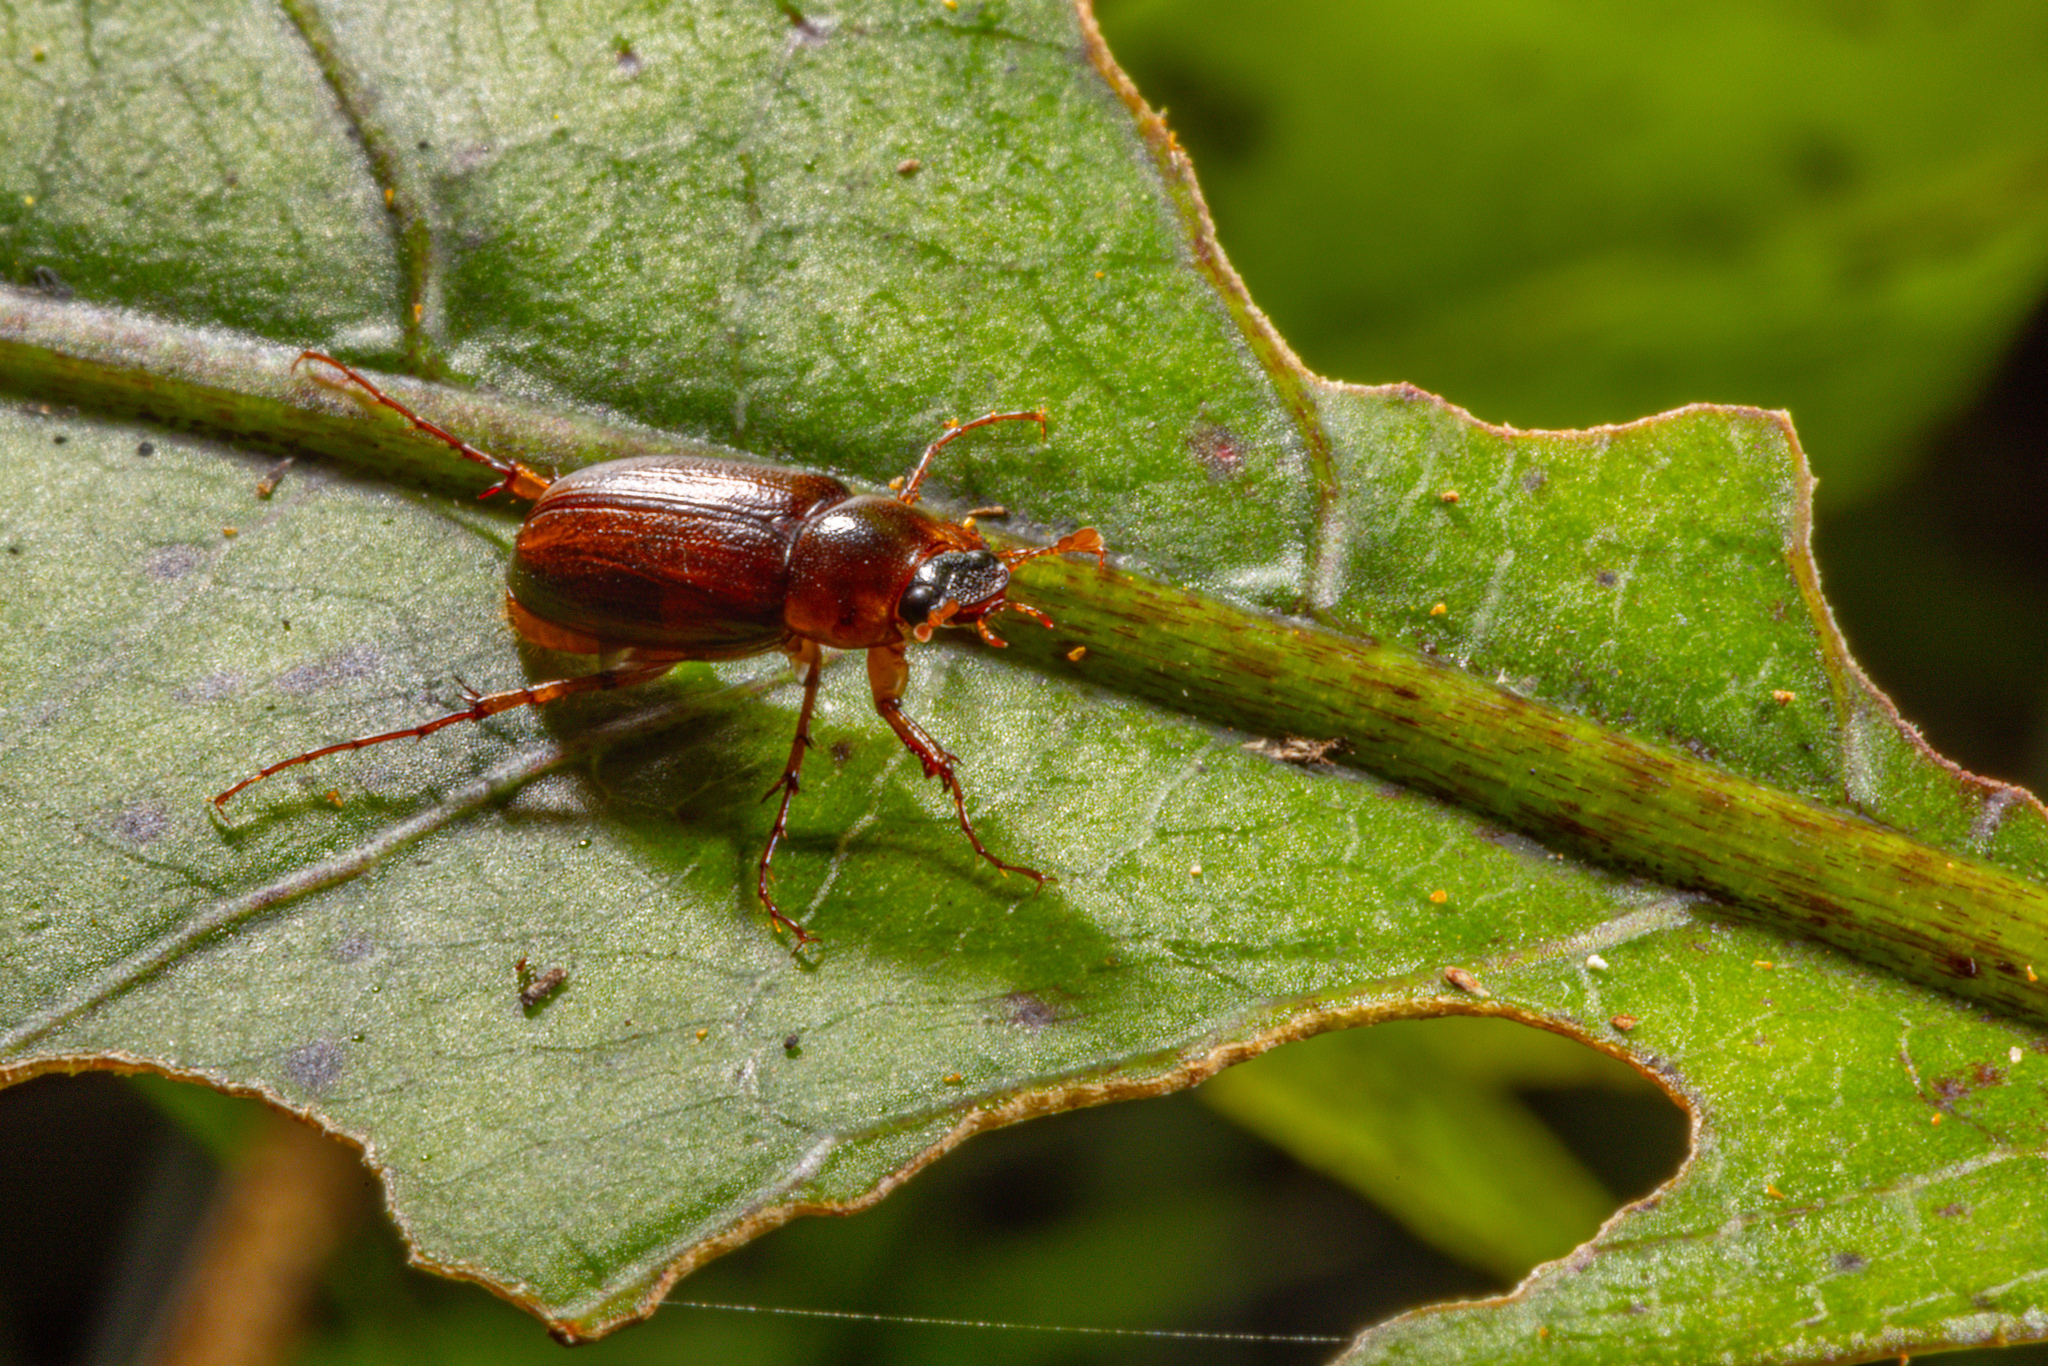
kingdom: Animalia
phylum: Arthropoda
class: Insecta
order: Coleoptera
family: Scarabaeidae
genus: Sericospilus
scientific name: Sericospilus watti
